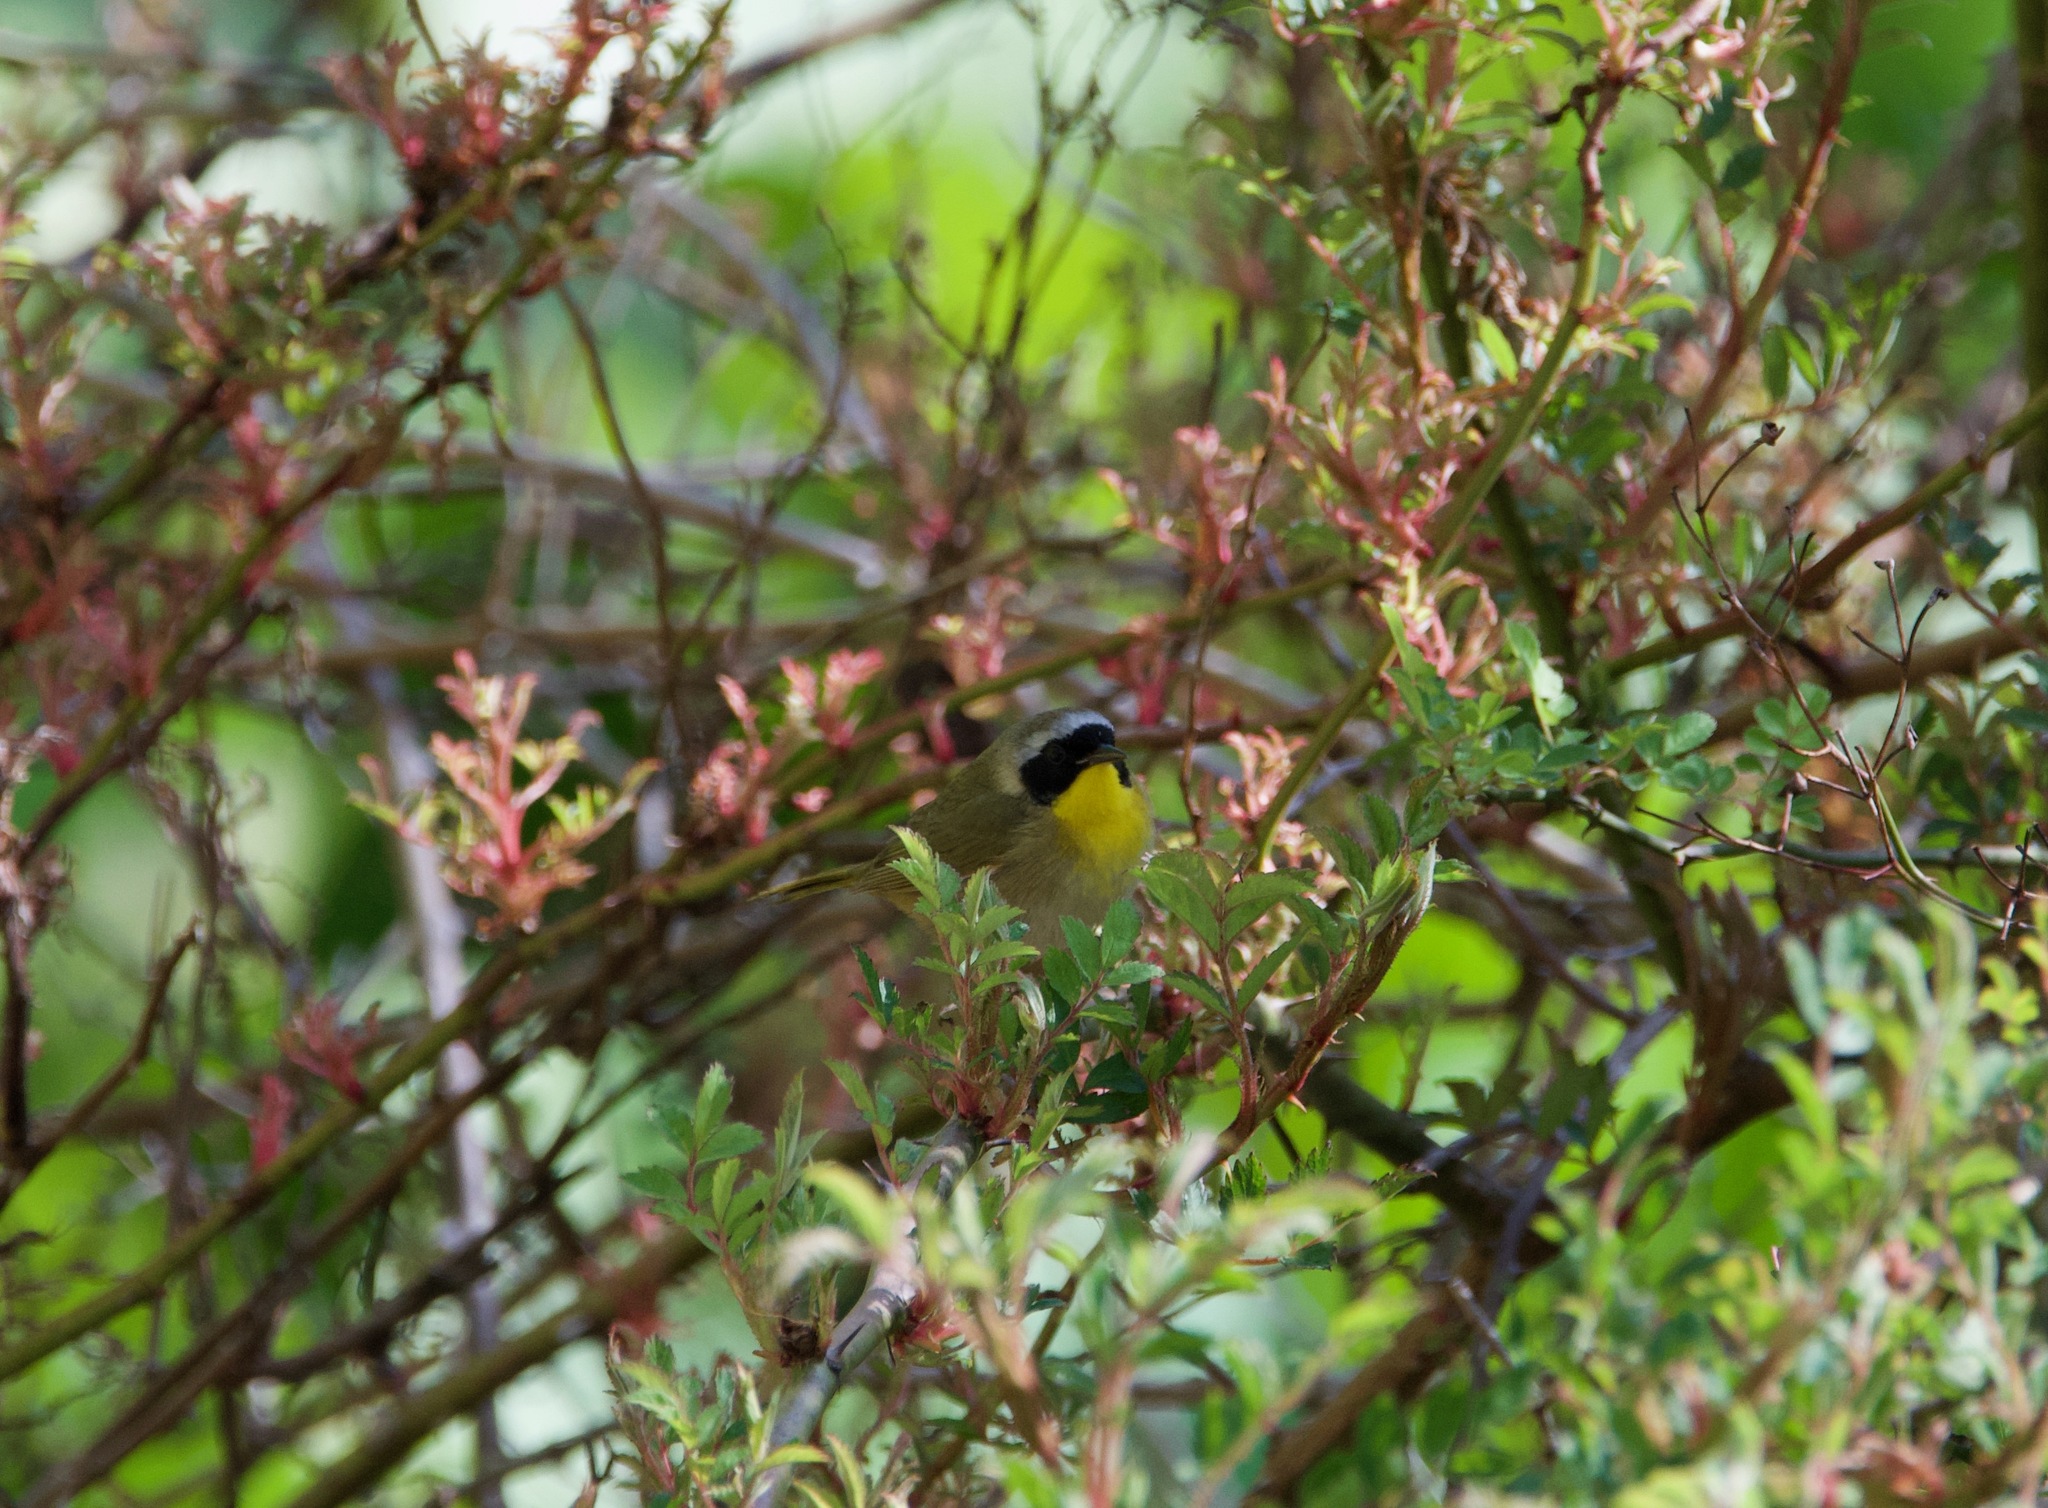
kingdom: Animalia
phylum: Chordata
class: Aves
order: Passeriformes
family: Parulidae
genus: Geothlypis
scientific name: Geothlypis trichas
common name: Common yellowthroat
